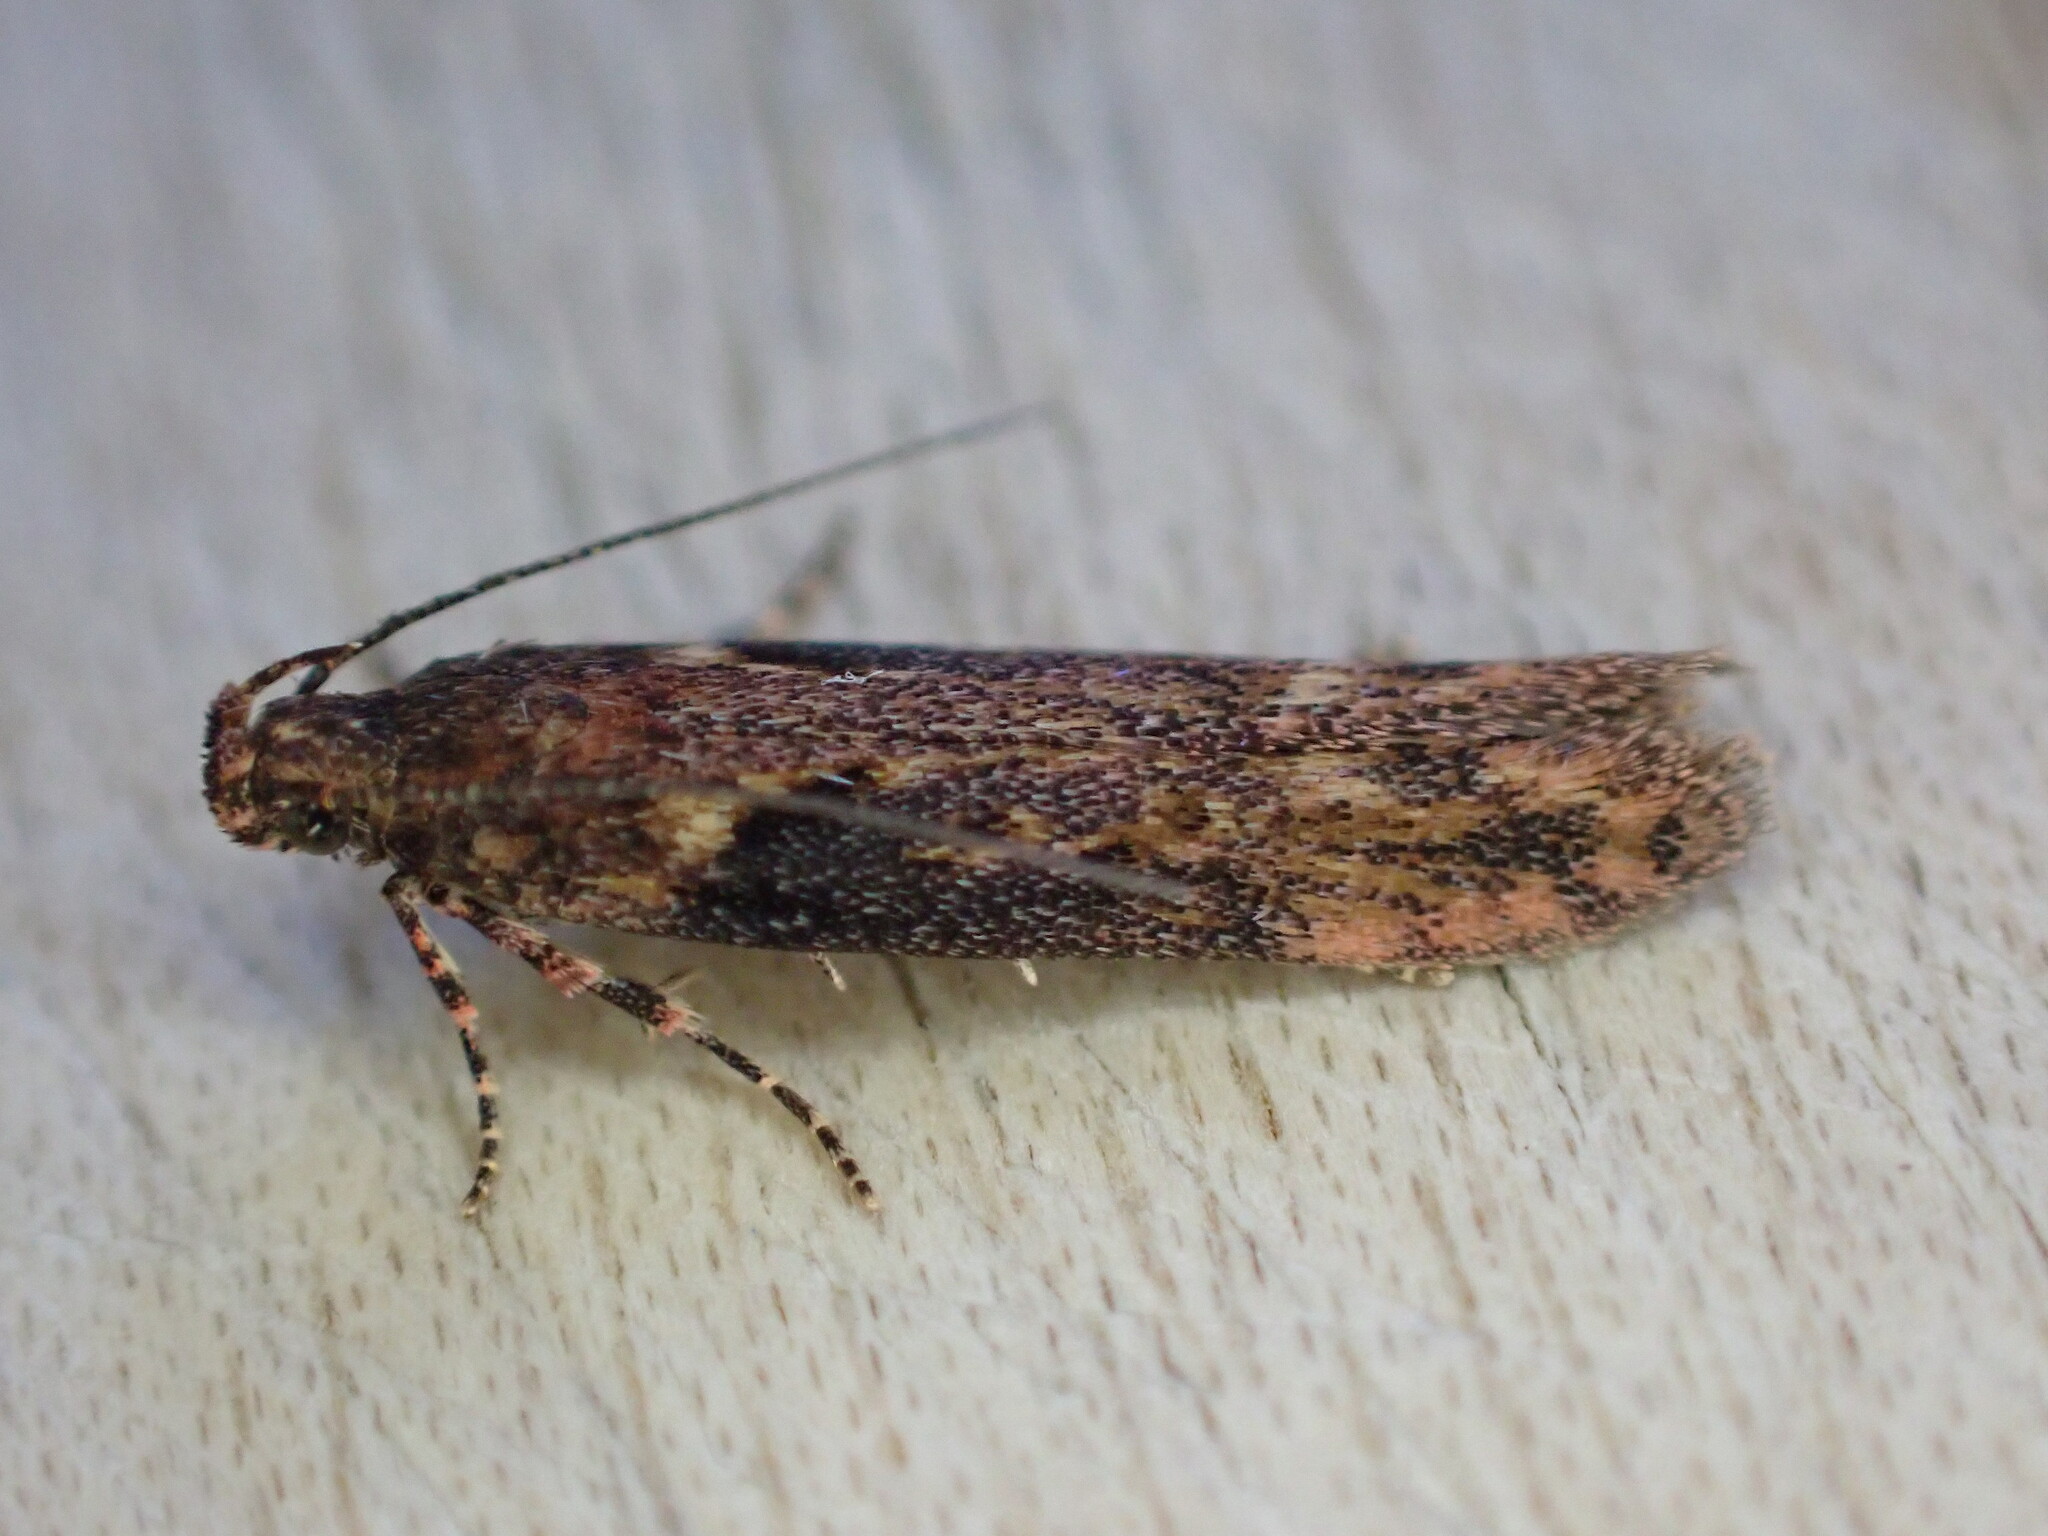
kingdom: Animalia
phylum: Arthropoda
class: Insecta
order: Lepidoptera
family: Gelechiidae
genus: Scrobipalpa
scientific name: Scrobipalpa costella
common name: Winter groundling
